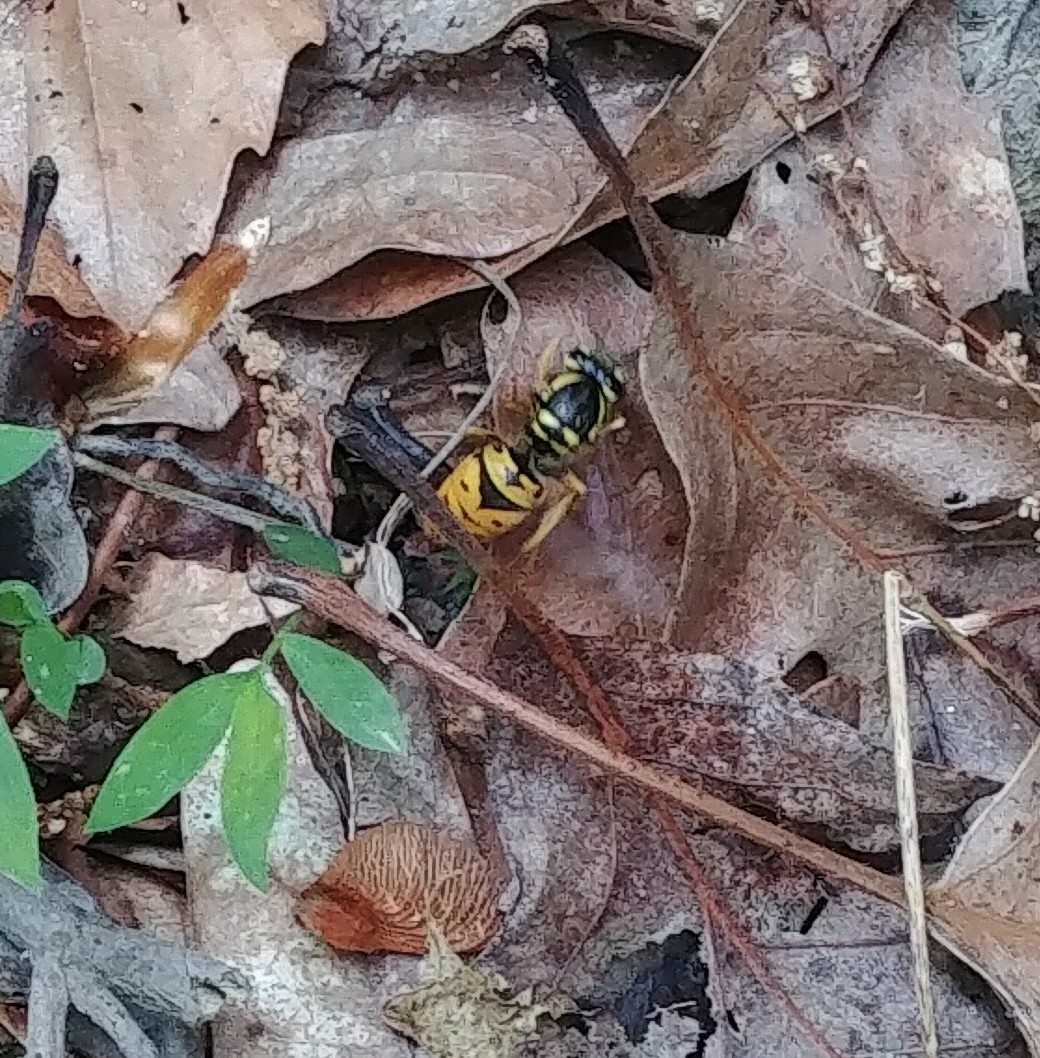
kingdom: Animalia
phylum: Arthropoda
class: Insecta
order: Hymenoptera
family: Vespidae
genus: Vespula
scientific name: Vespula maculifrons
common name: Eastern yellowjacket
